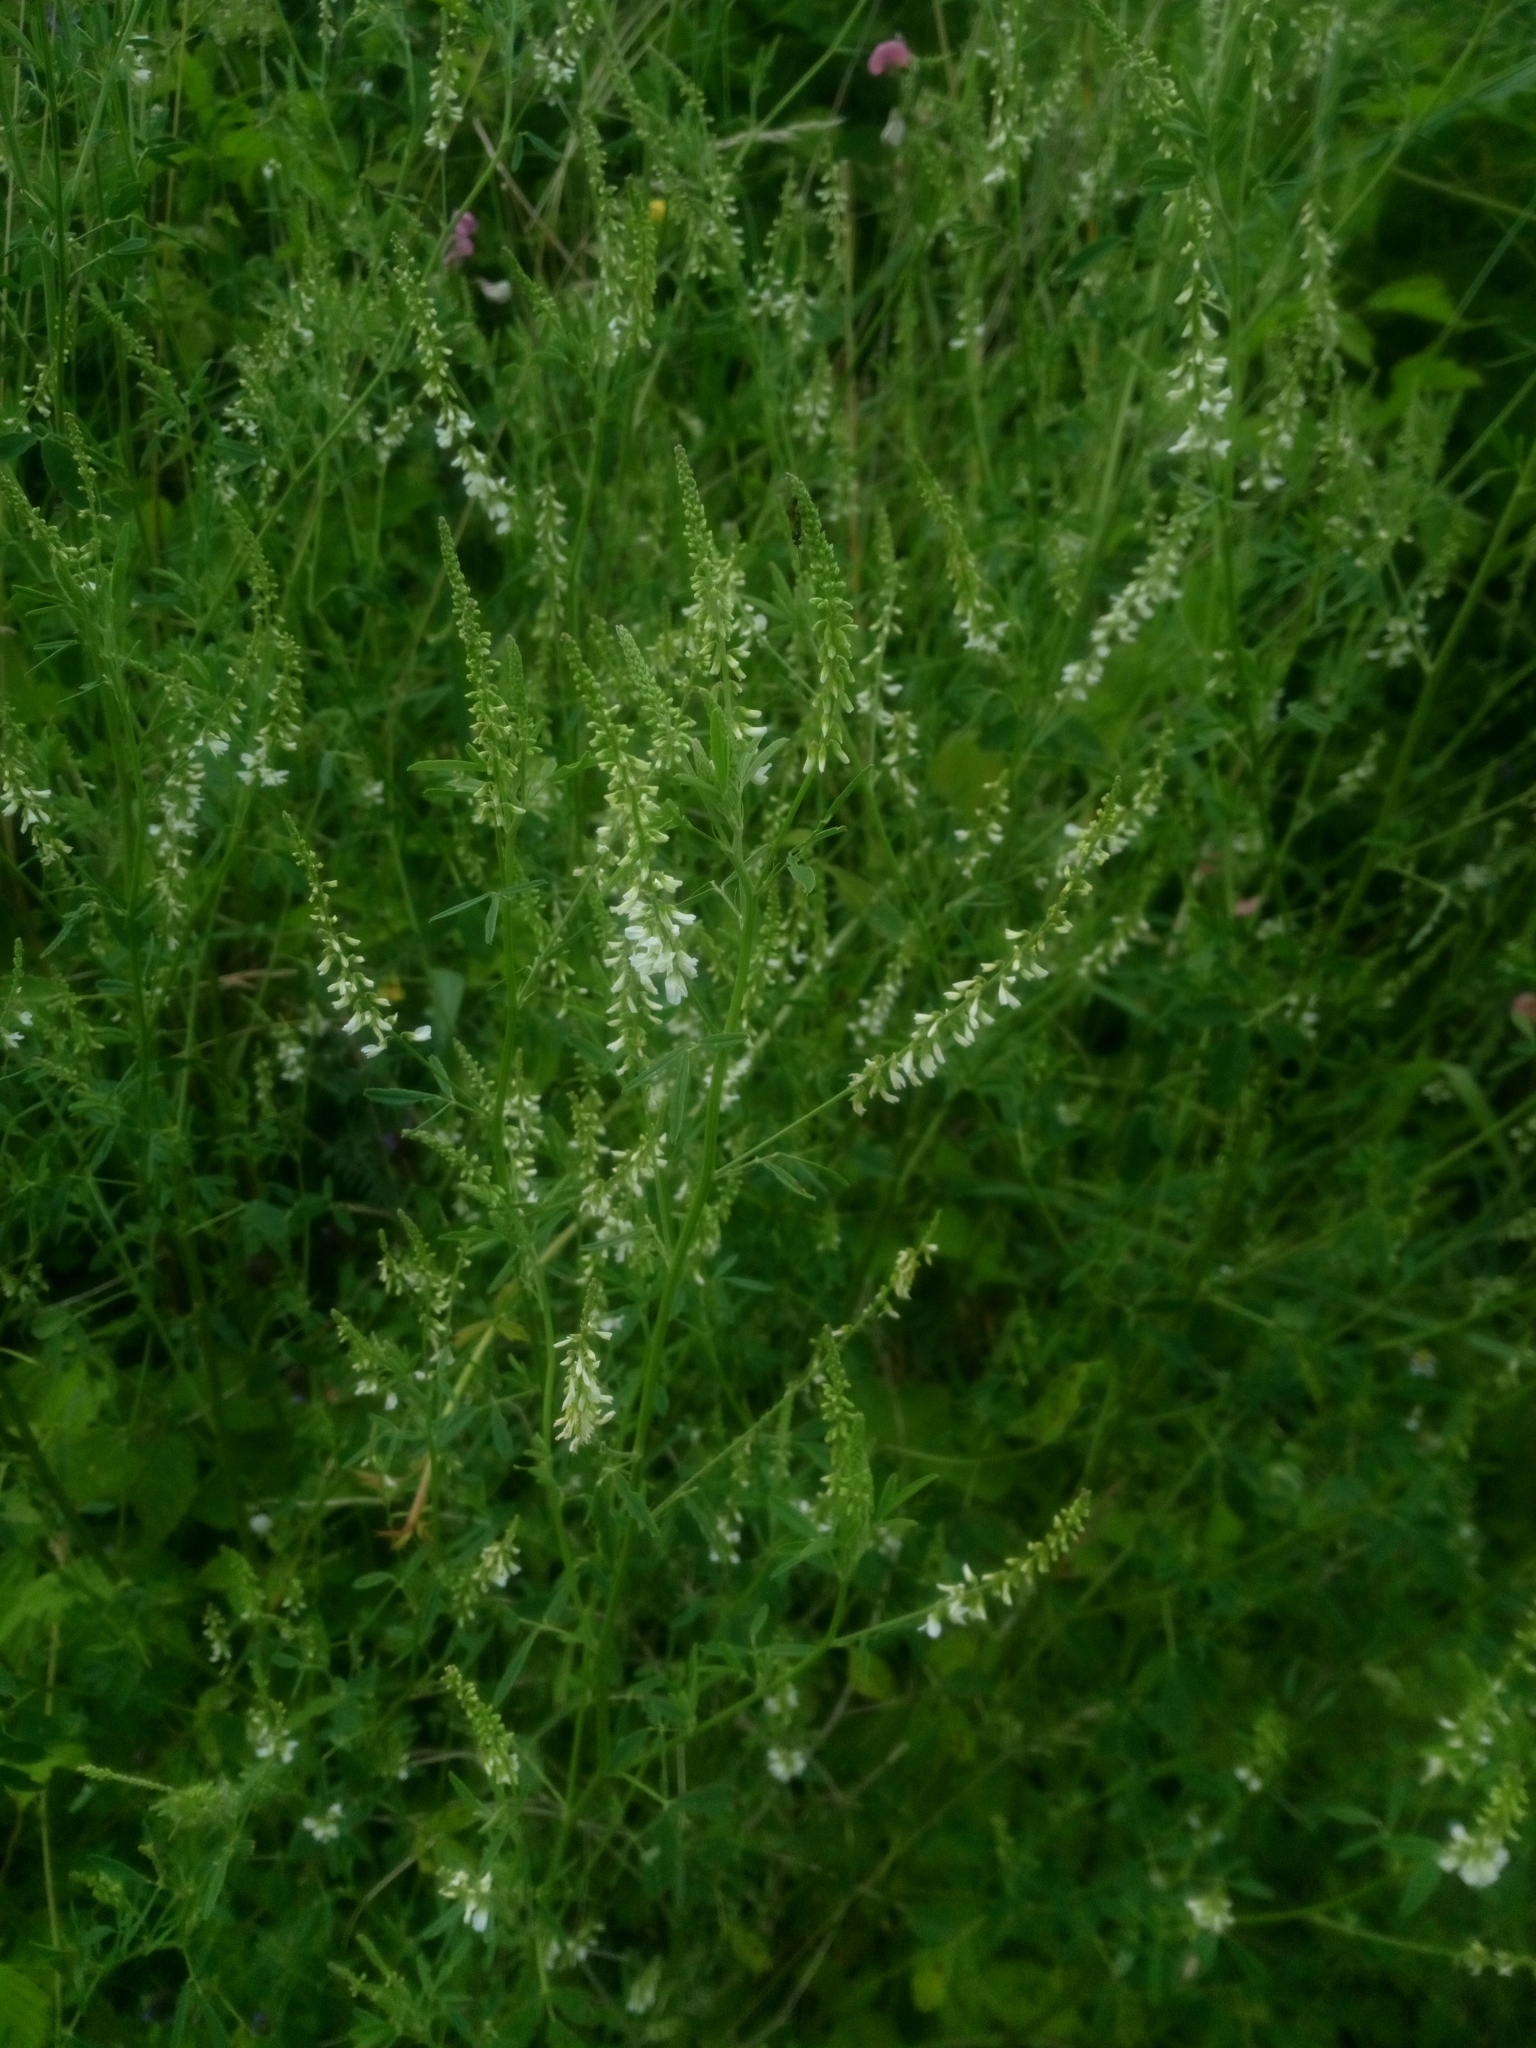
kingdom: Plantae
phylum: Tracheophyta
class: Magnoliopsida
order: Fabales
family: Fabaceae
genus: Melilotus
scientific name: Melilotus albus
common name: White melilot
